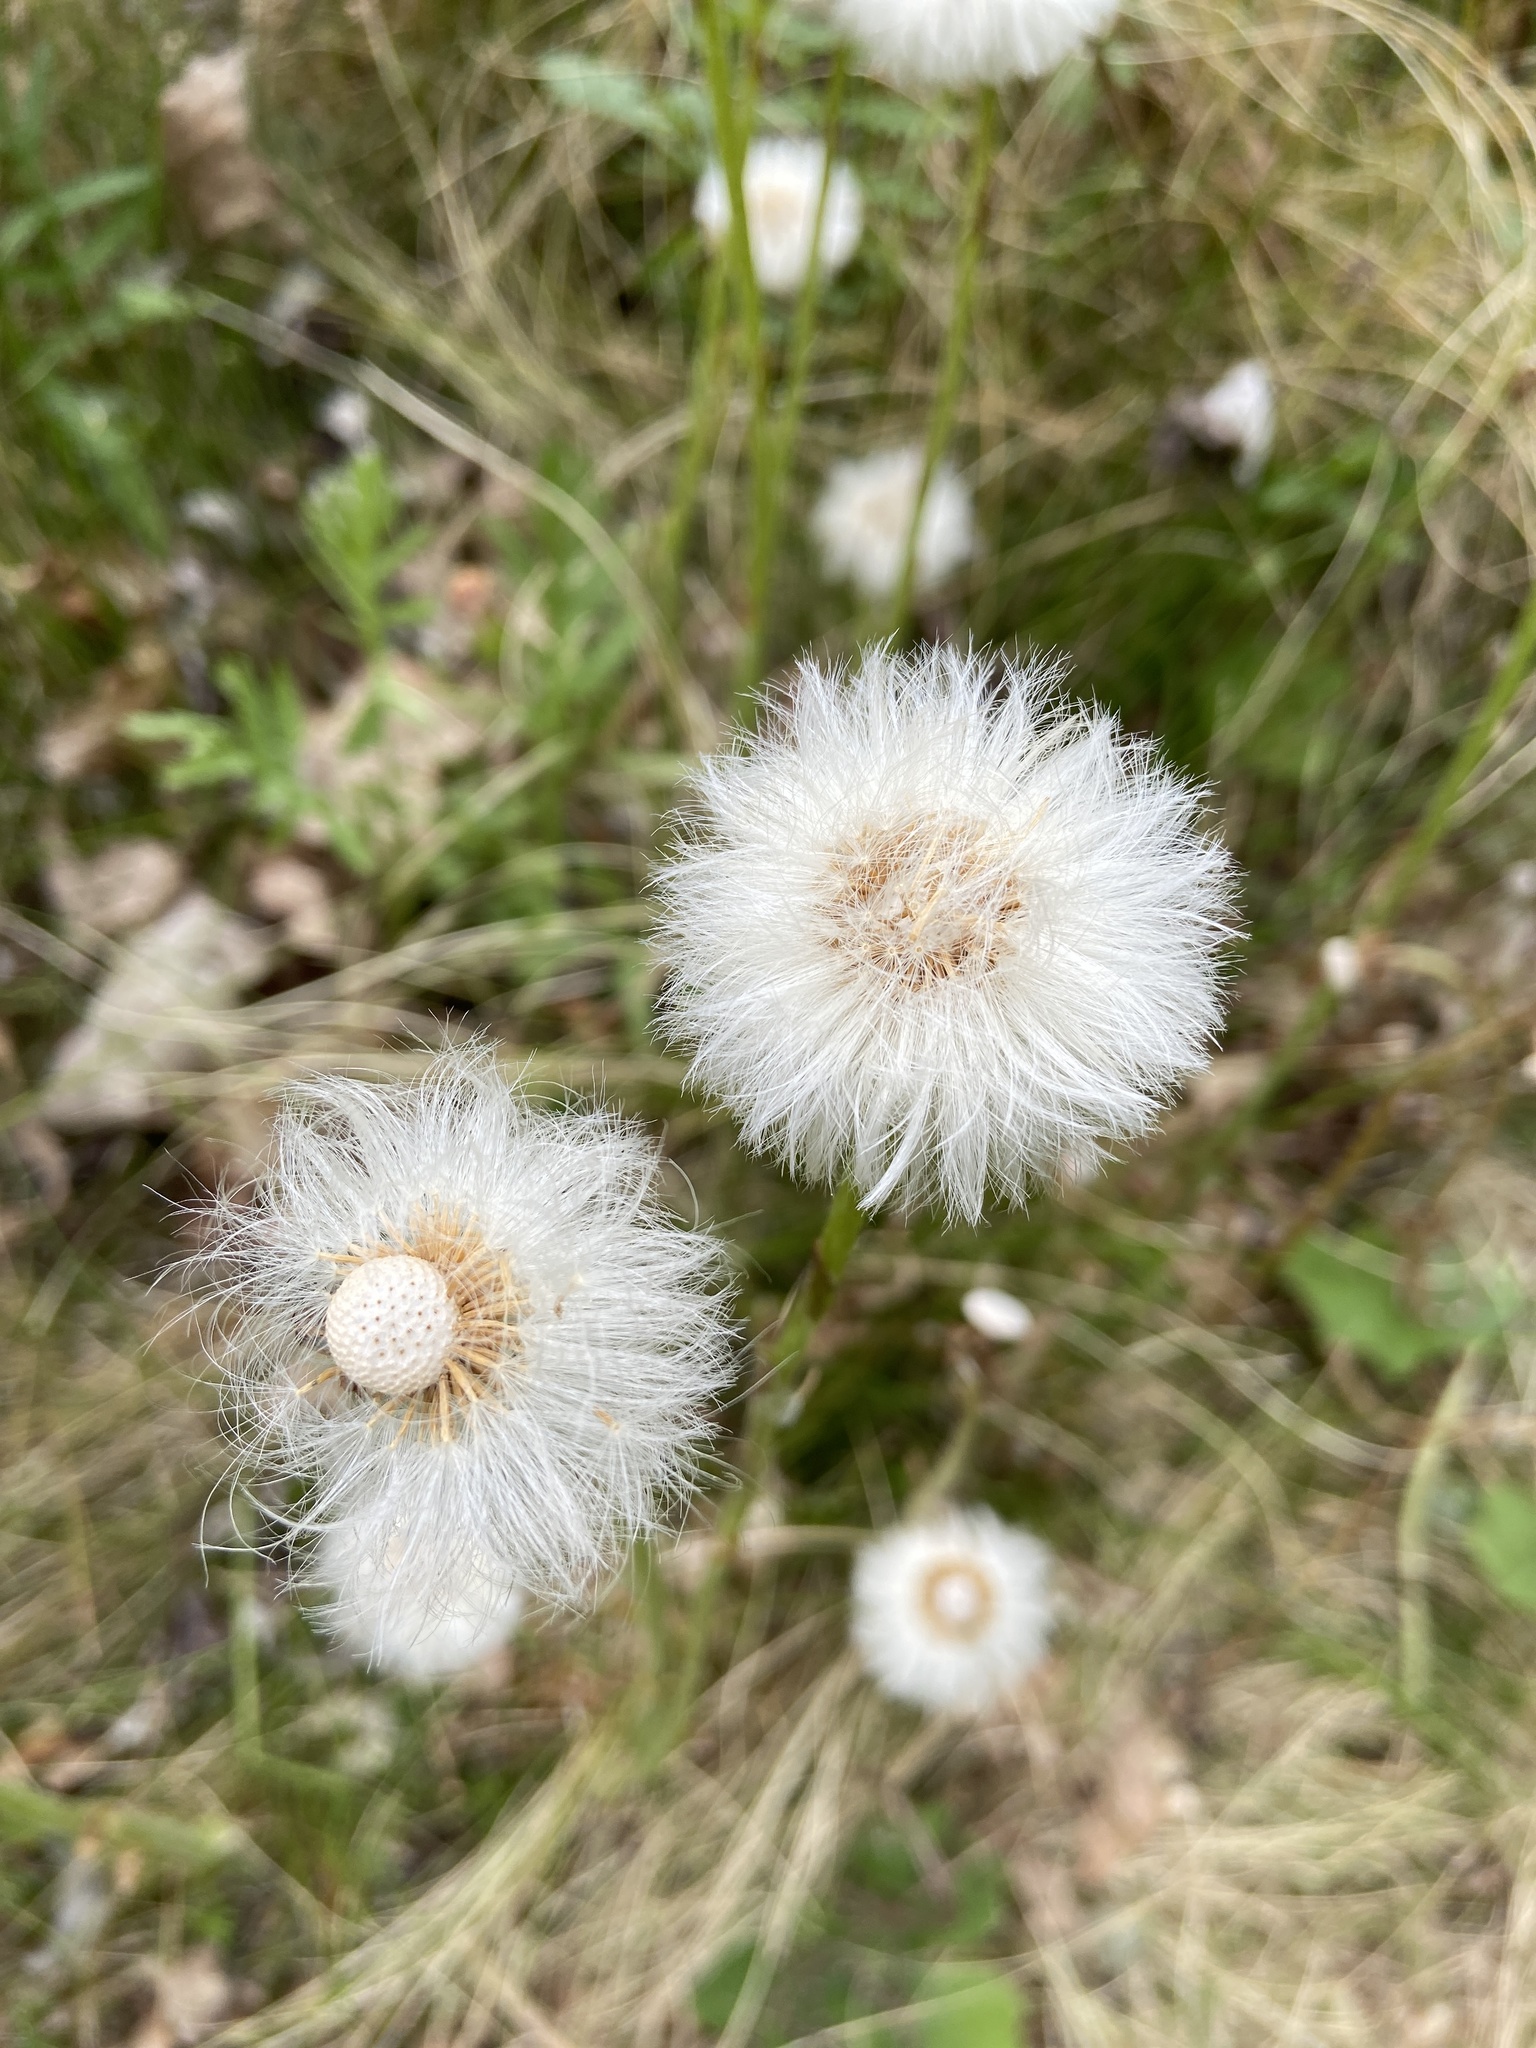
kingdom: Plantae
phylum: Tracheophyta
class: Magnoliopsida
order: Asterales
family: Asteraceae
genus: Tussilago
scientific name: Tussilago farfara
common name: Coltsfoot
